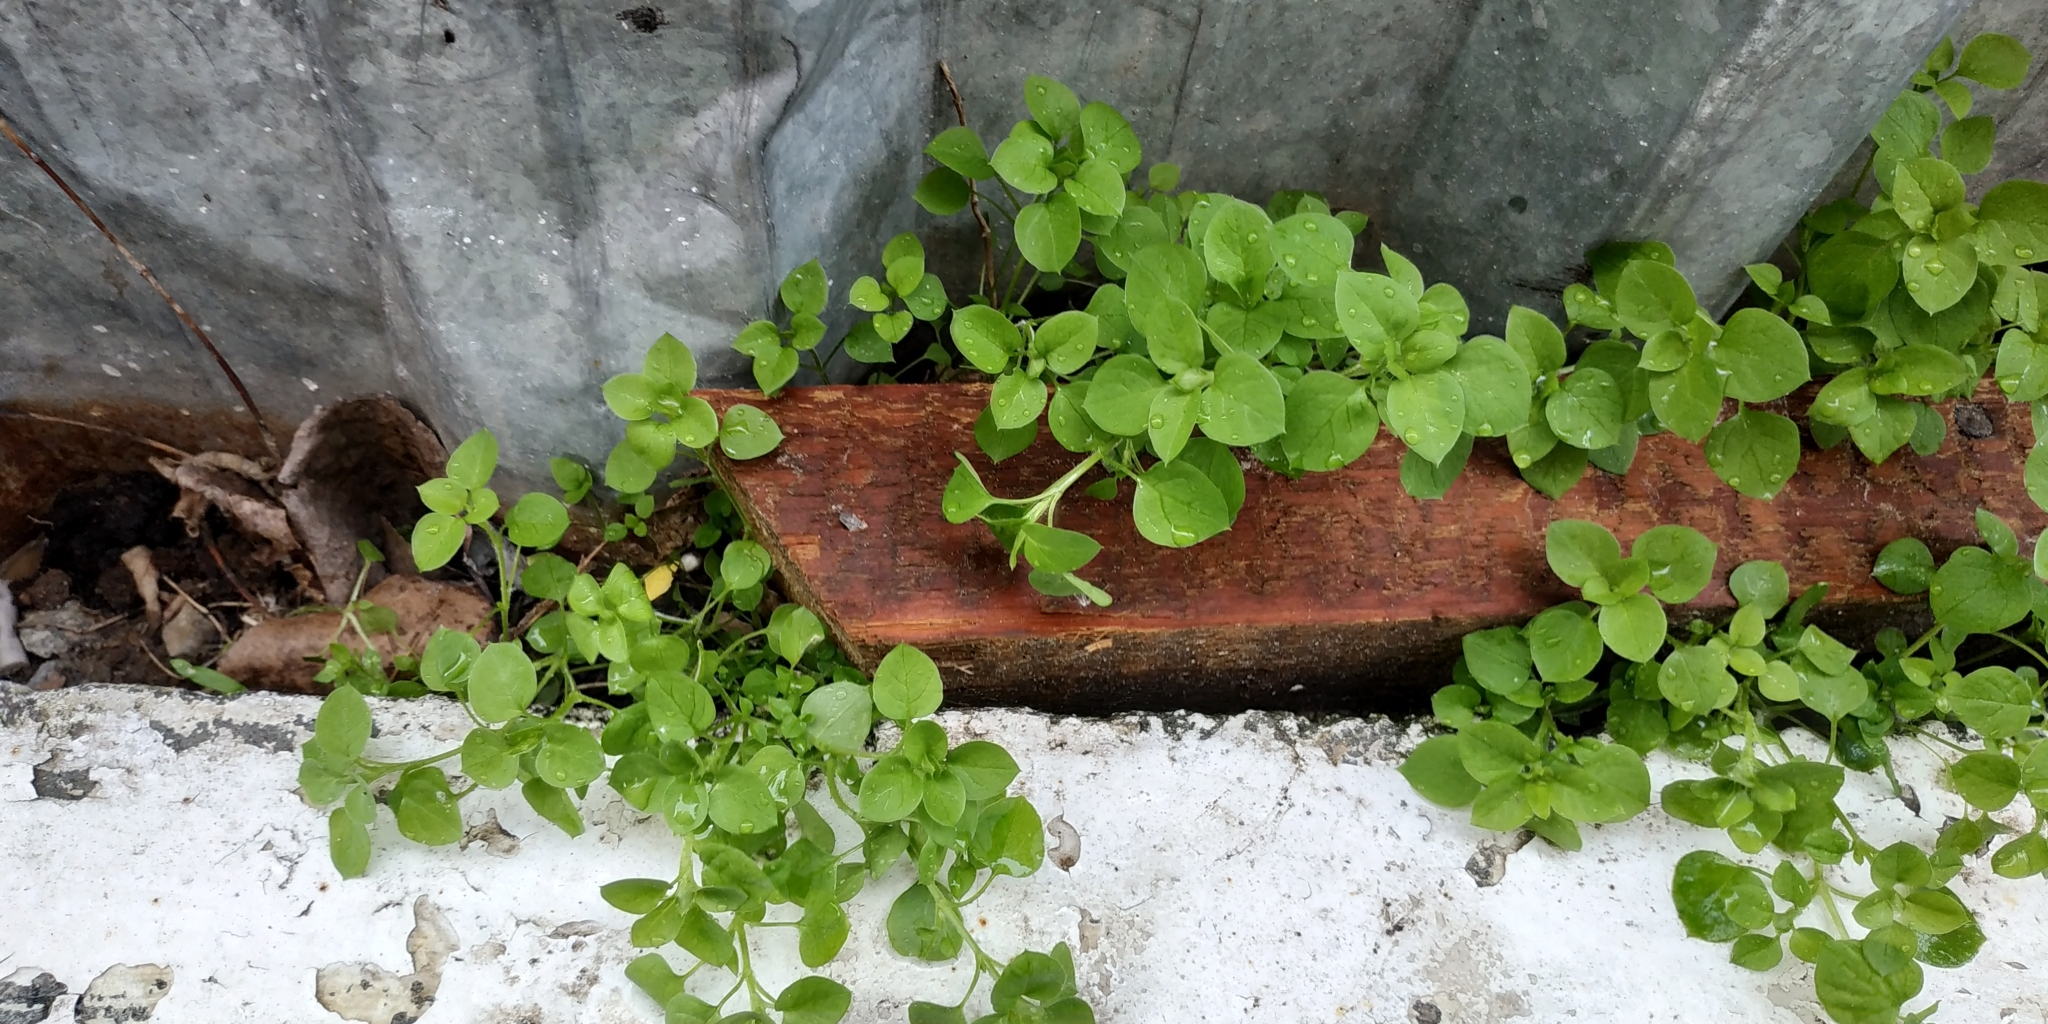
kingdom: Plantae
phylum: Tracheophyta
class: Magnoliopsida
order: Caryophyllales
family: Caryophyllaceae
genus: Stellaria
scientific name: Stellaria media
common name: Common chickweed
